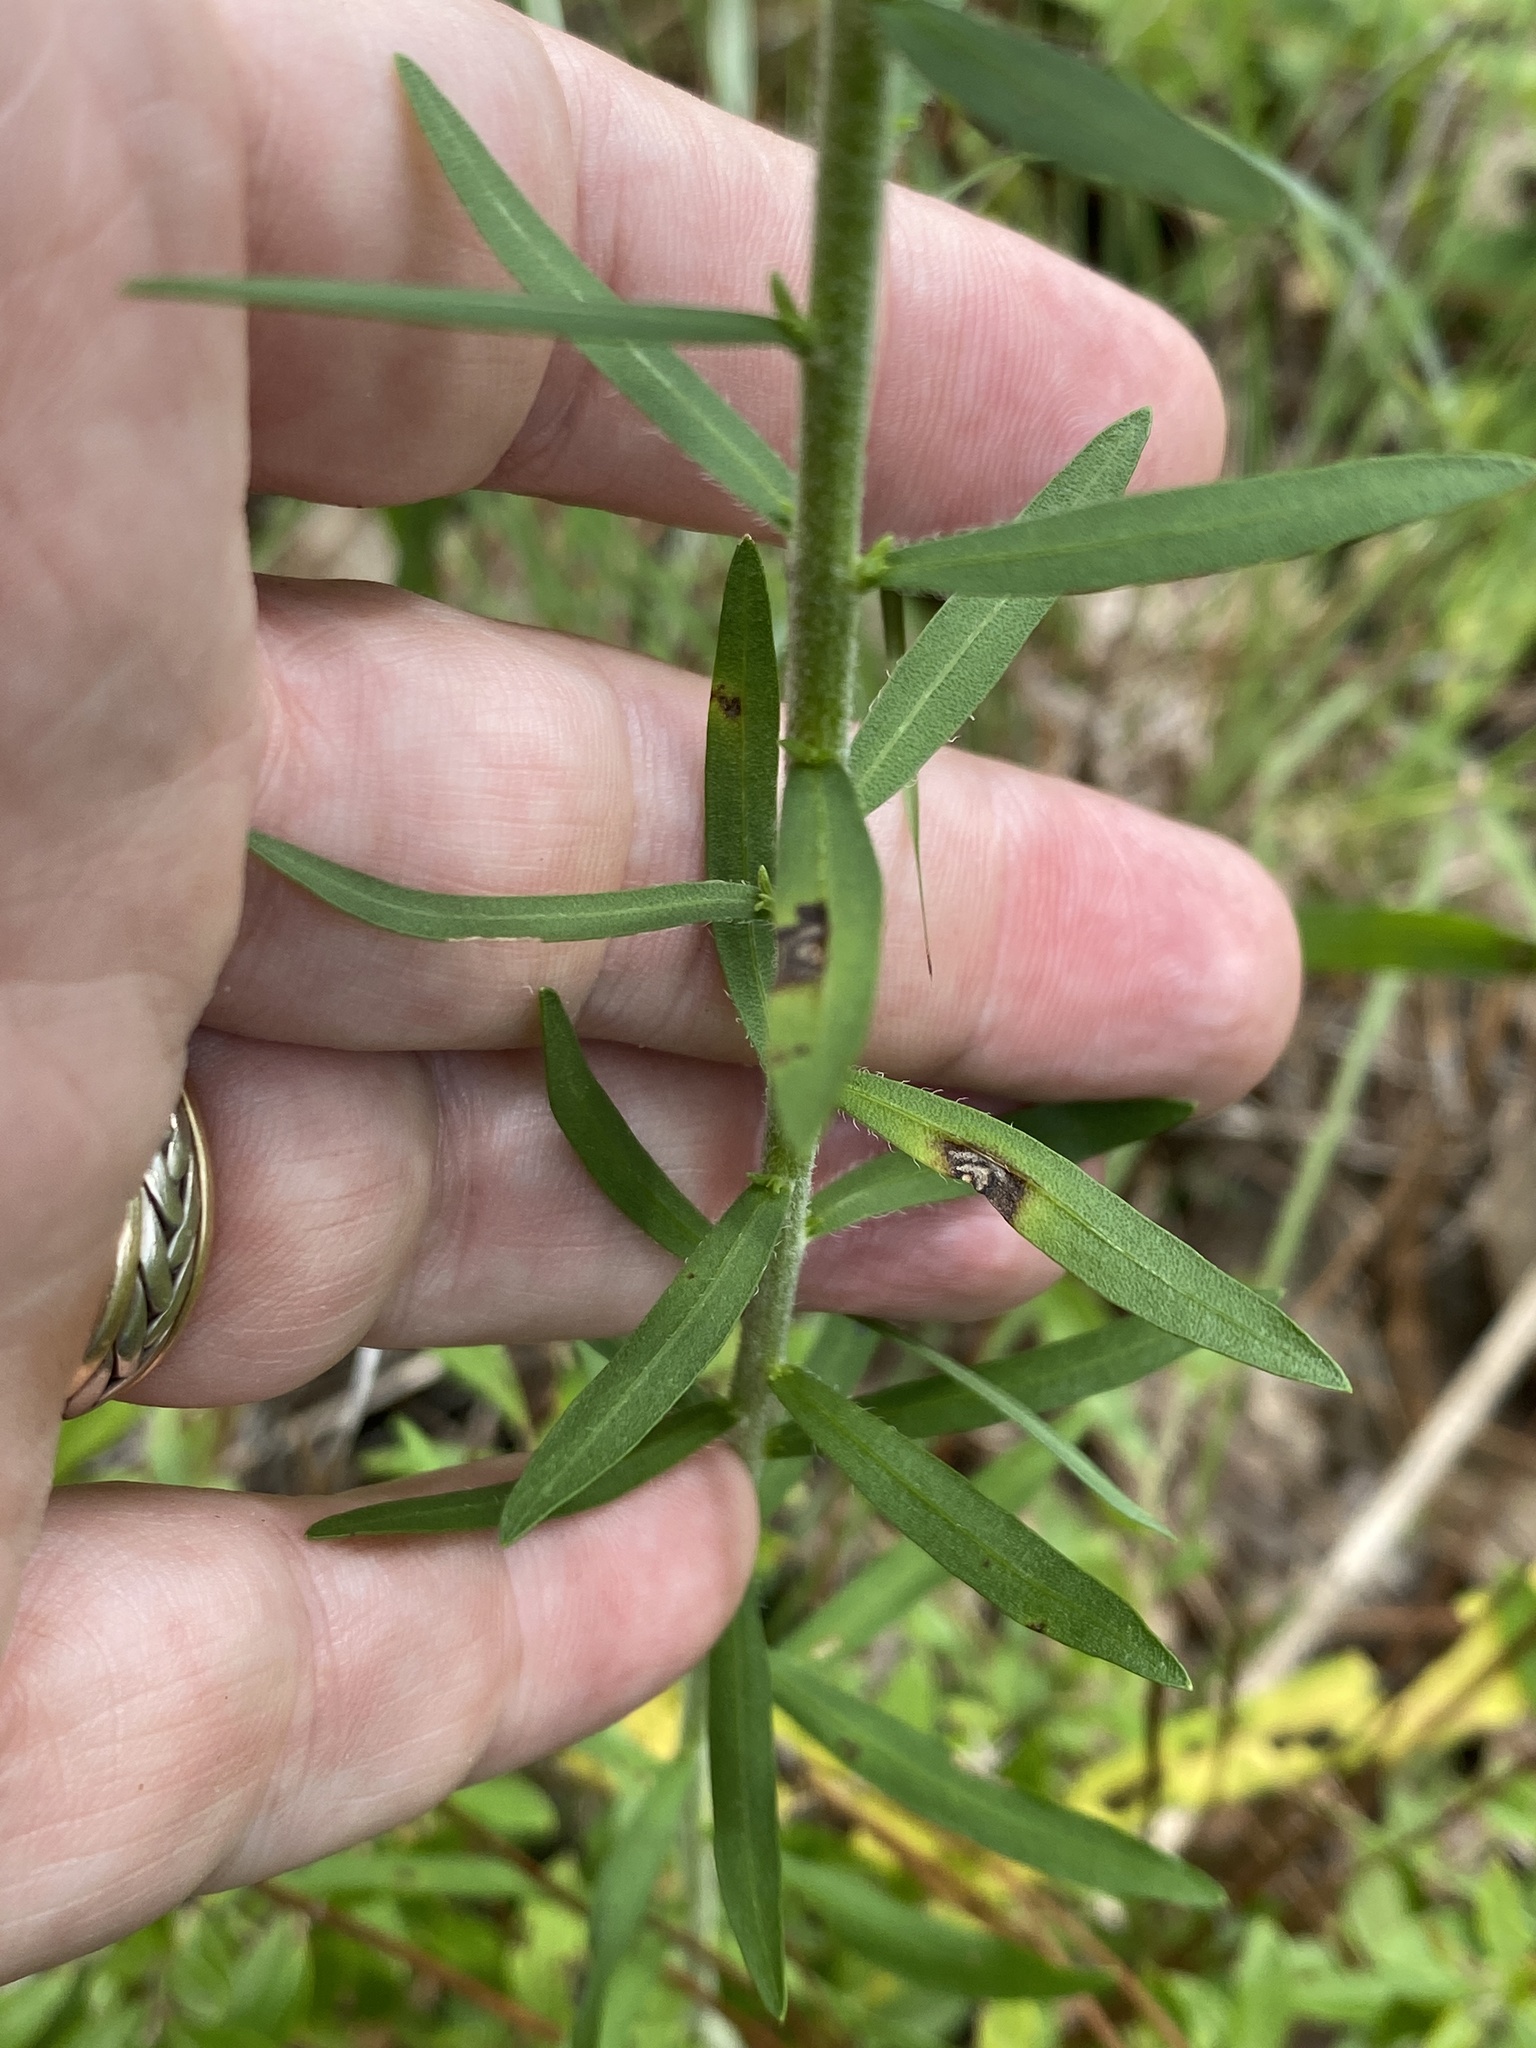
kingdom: Plantae
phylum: Tracheophyta
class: Magnoliopsida
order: Asterales
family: Asteraceae
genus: Liatris
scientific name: Liatris squarrulosa
